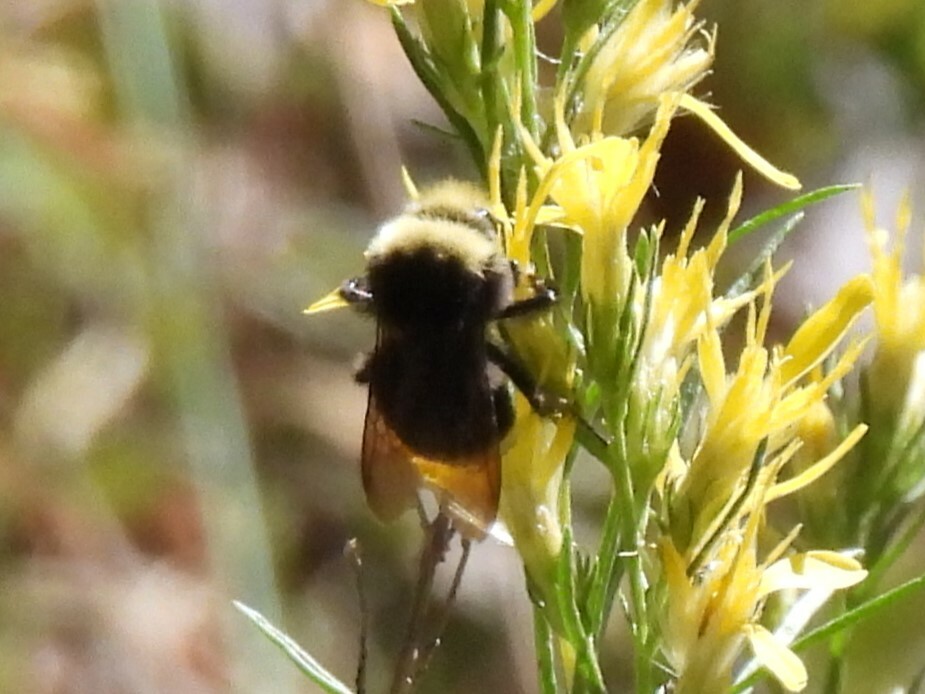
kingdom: Animalia
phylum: Arthropoda
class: Insecta
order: Hymenoptera
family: Apidae
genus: Bombus
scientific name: Bombus vosnesenskii
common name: Vosnesensky bumble bee
